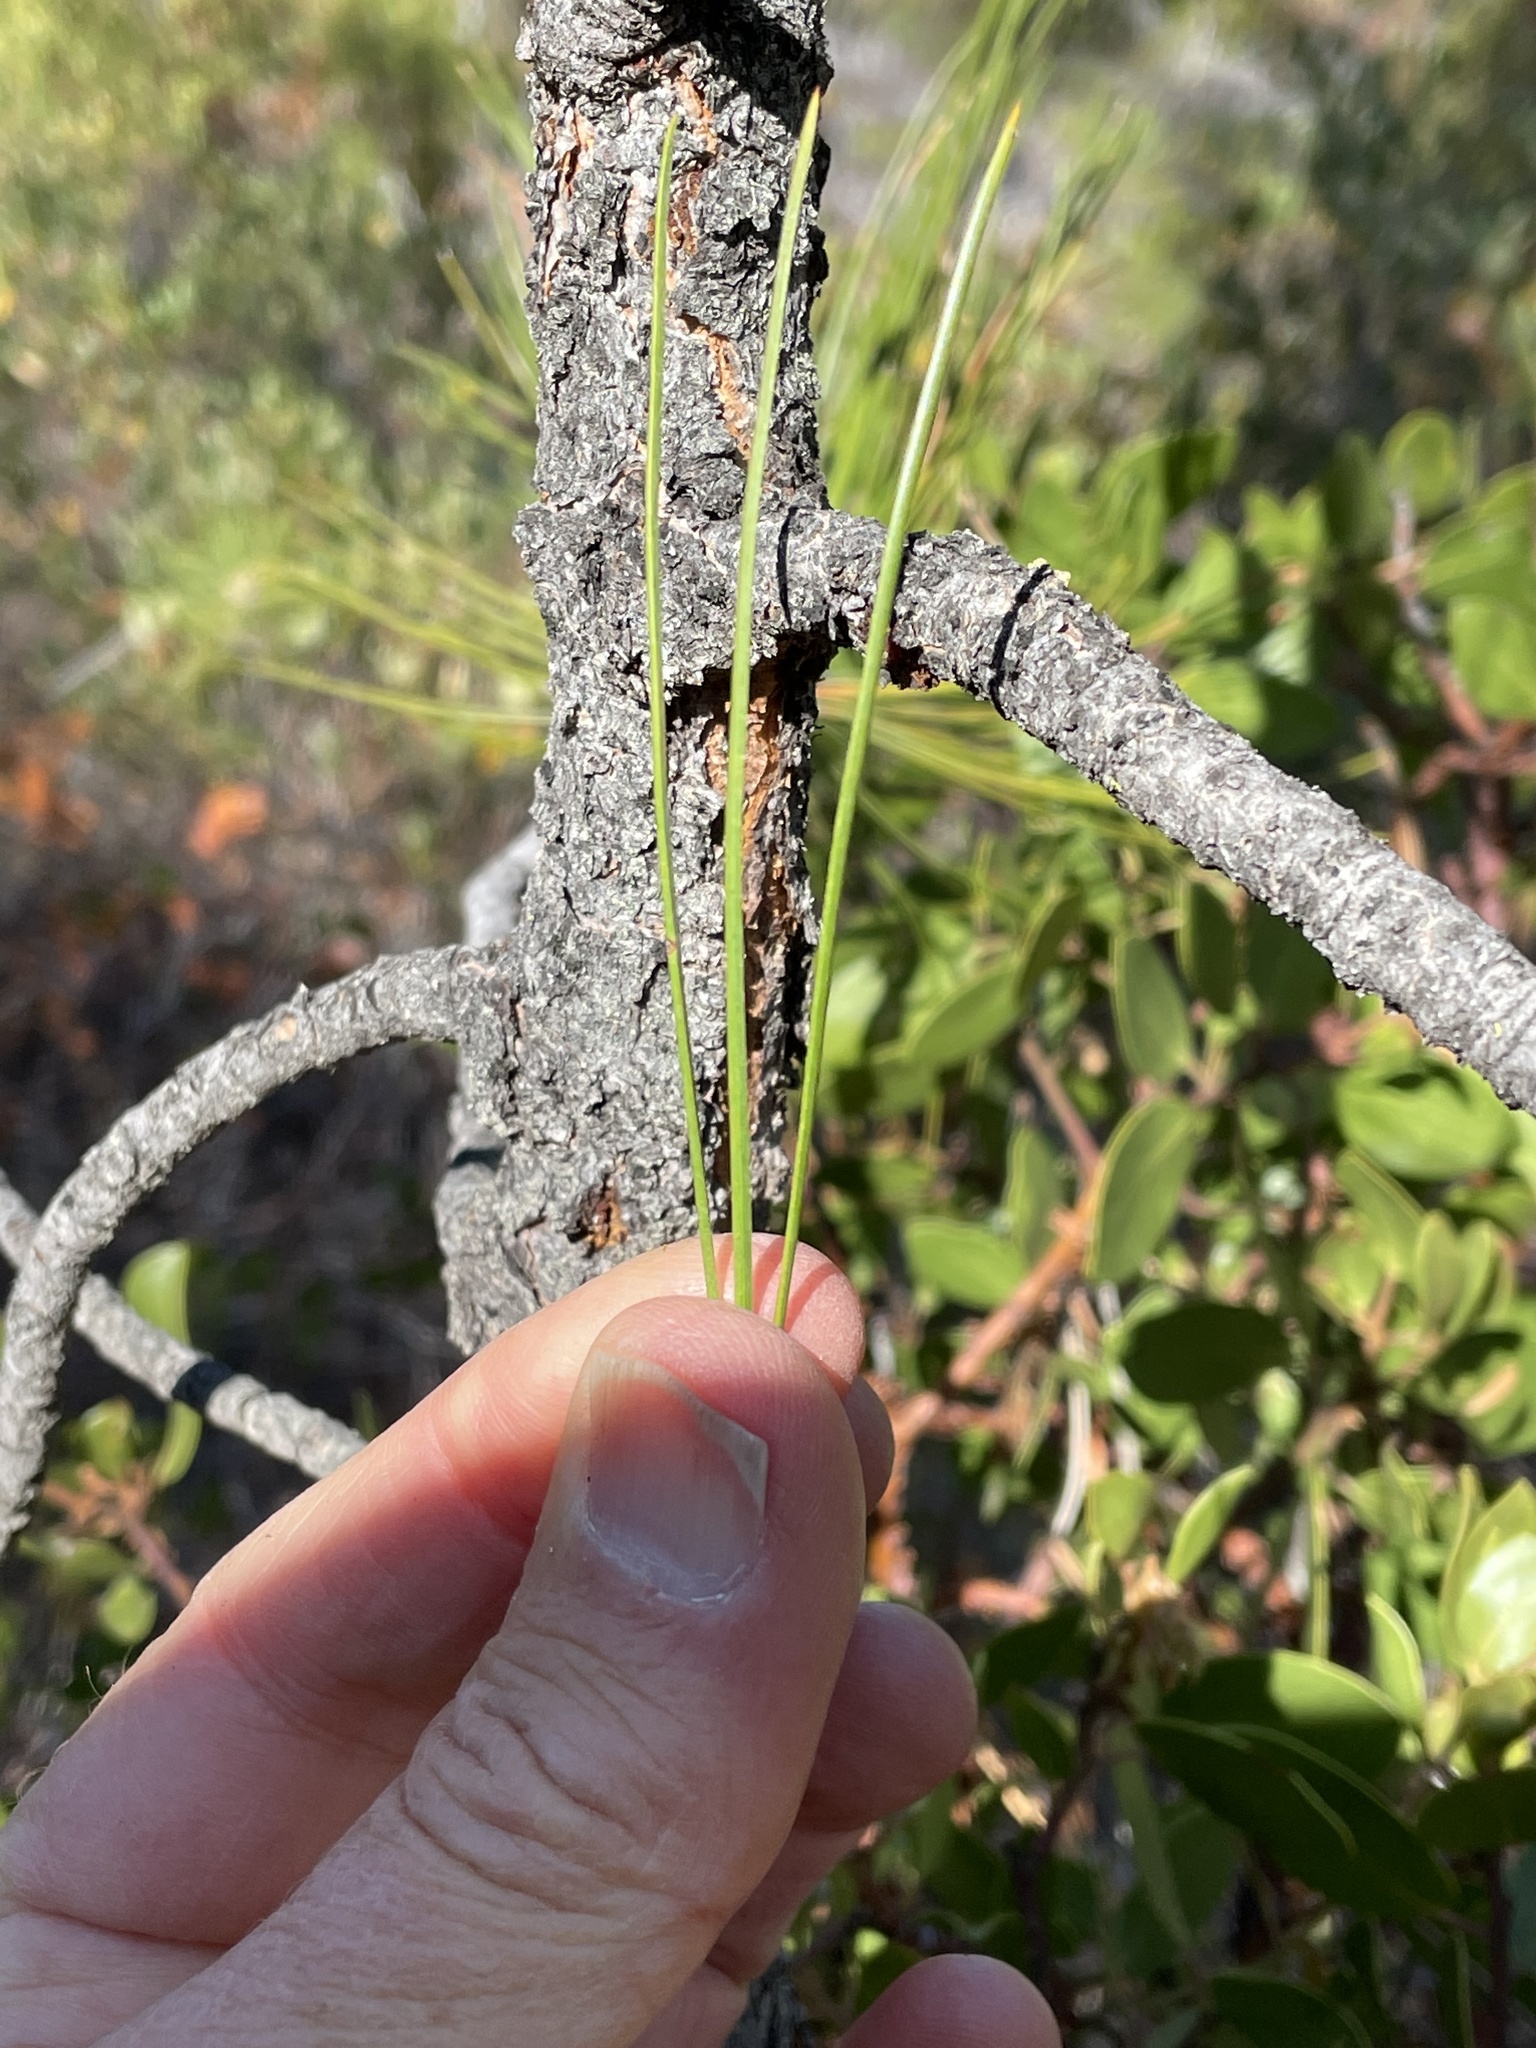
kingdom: Plantae
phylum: Tracheophyta
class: Pinopsida
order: Pinales
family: Pinaceae
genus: Pinus
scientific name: Pinus ponderosa
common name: Western yellow-pine
